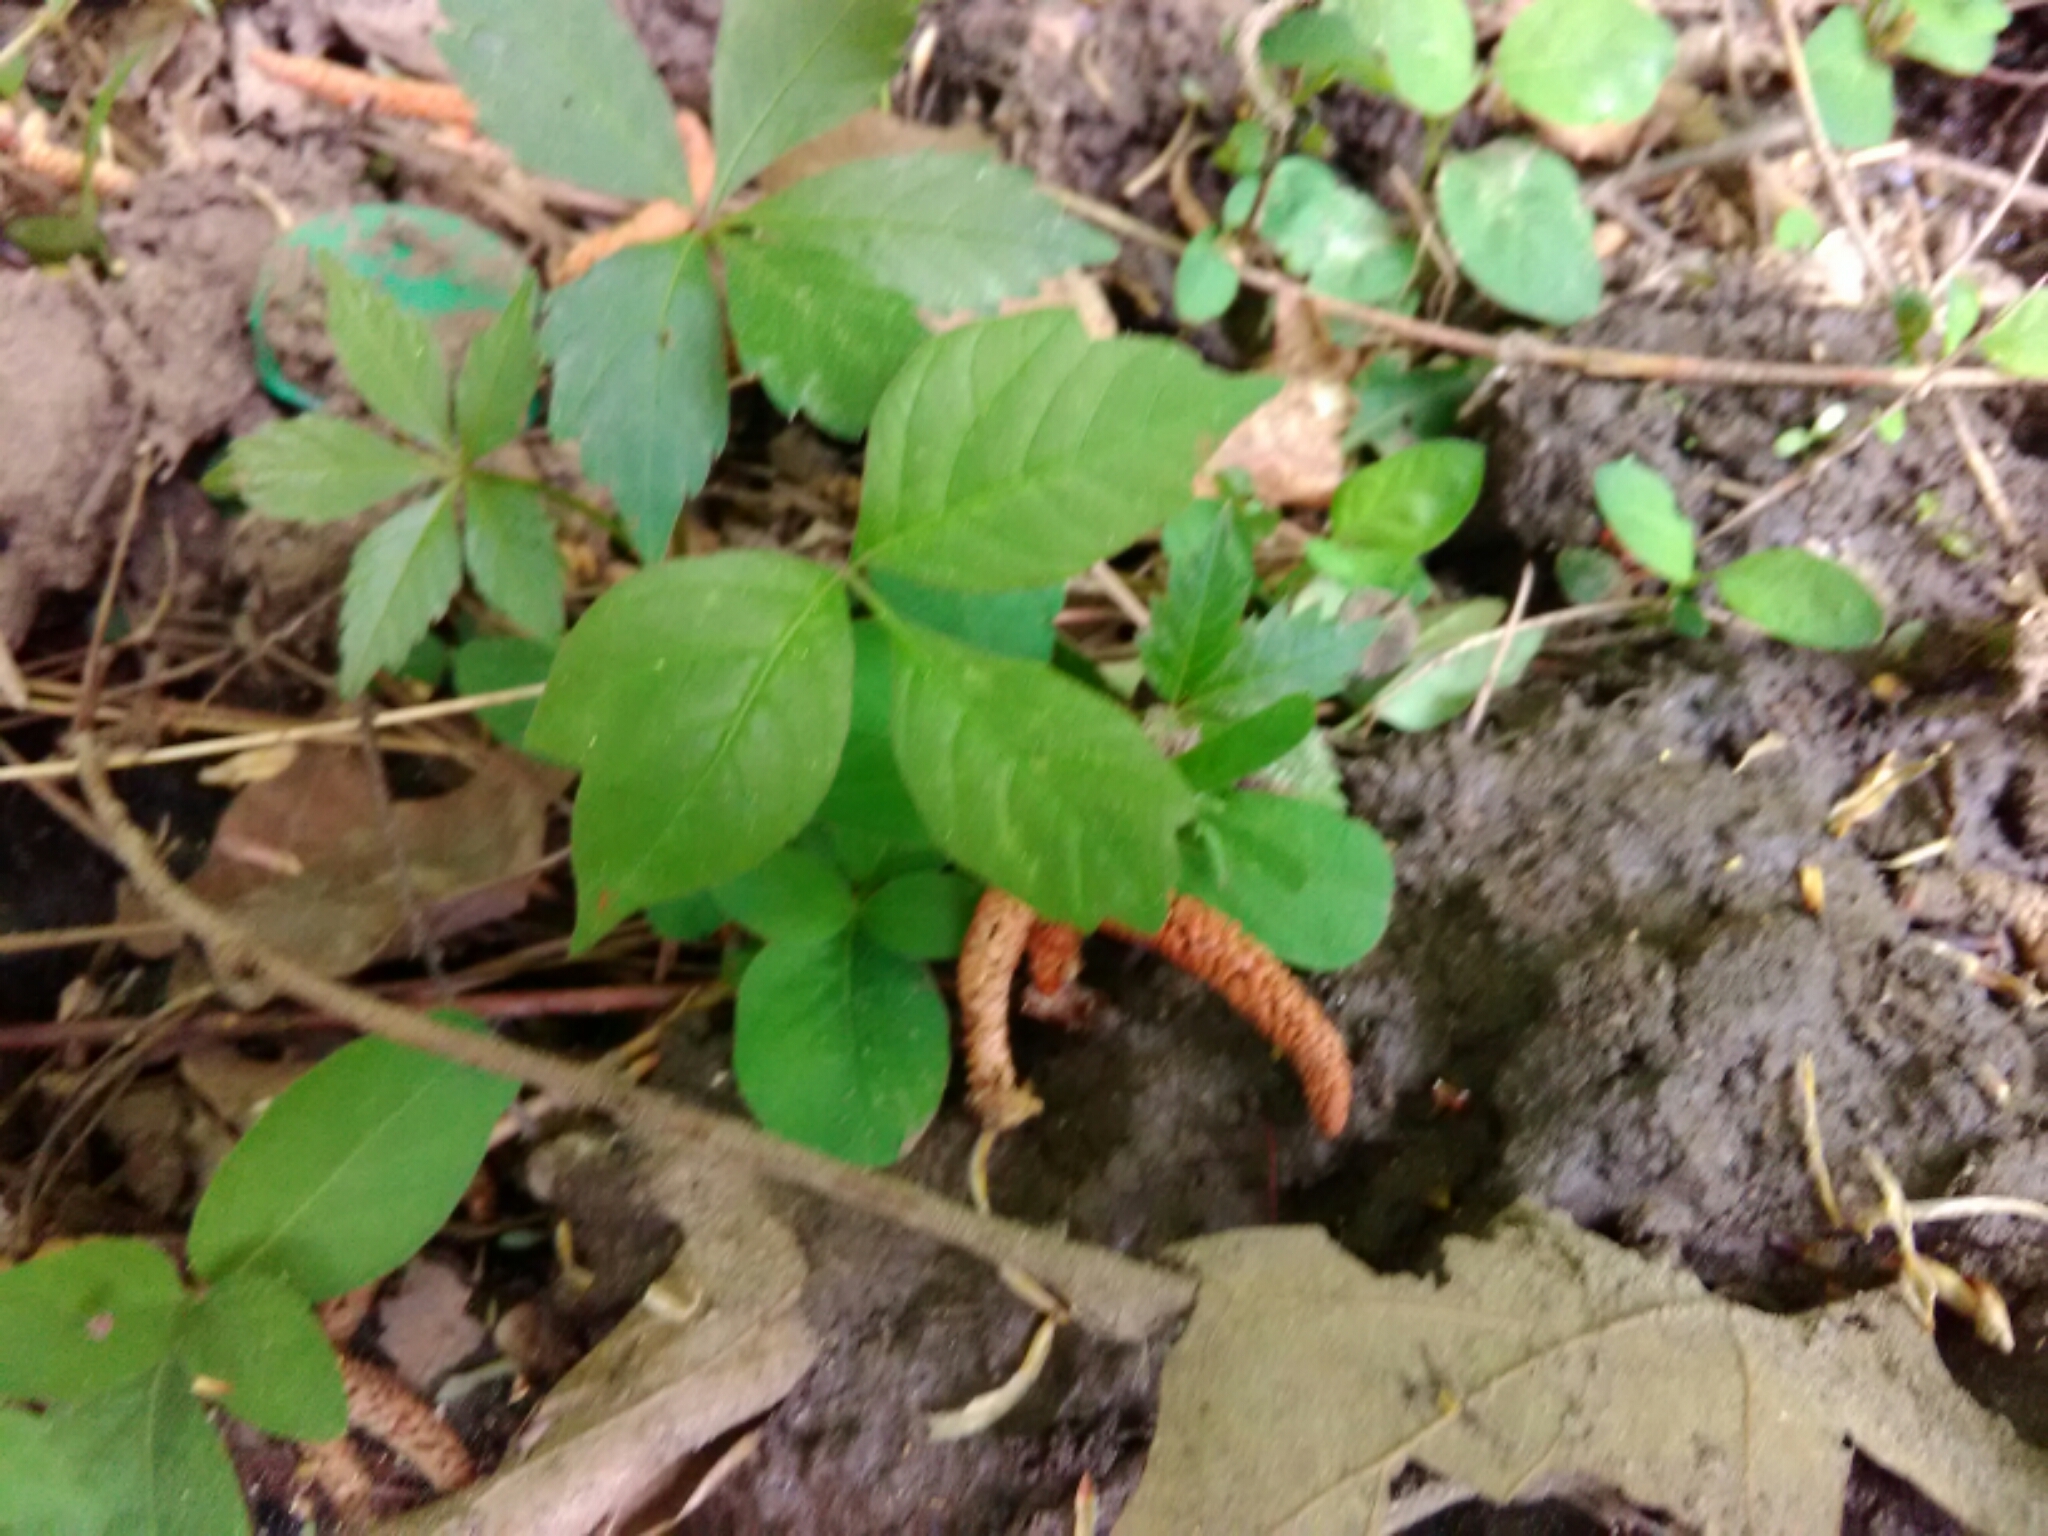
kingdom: Plantae
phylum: Tracheophyta
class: Magnoliopsida
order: Sapindales
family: Anacardiaceae
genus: Toxicodendron
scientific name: Toxicodendron radicans
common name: Poison ivy
